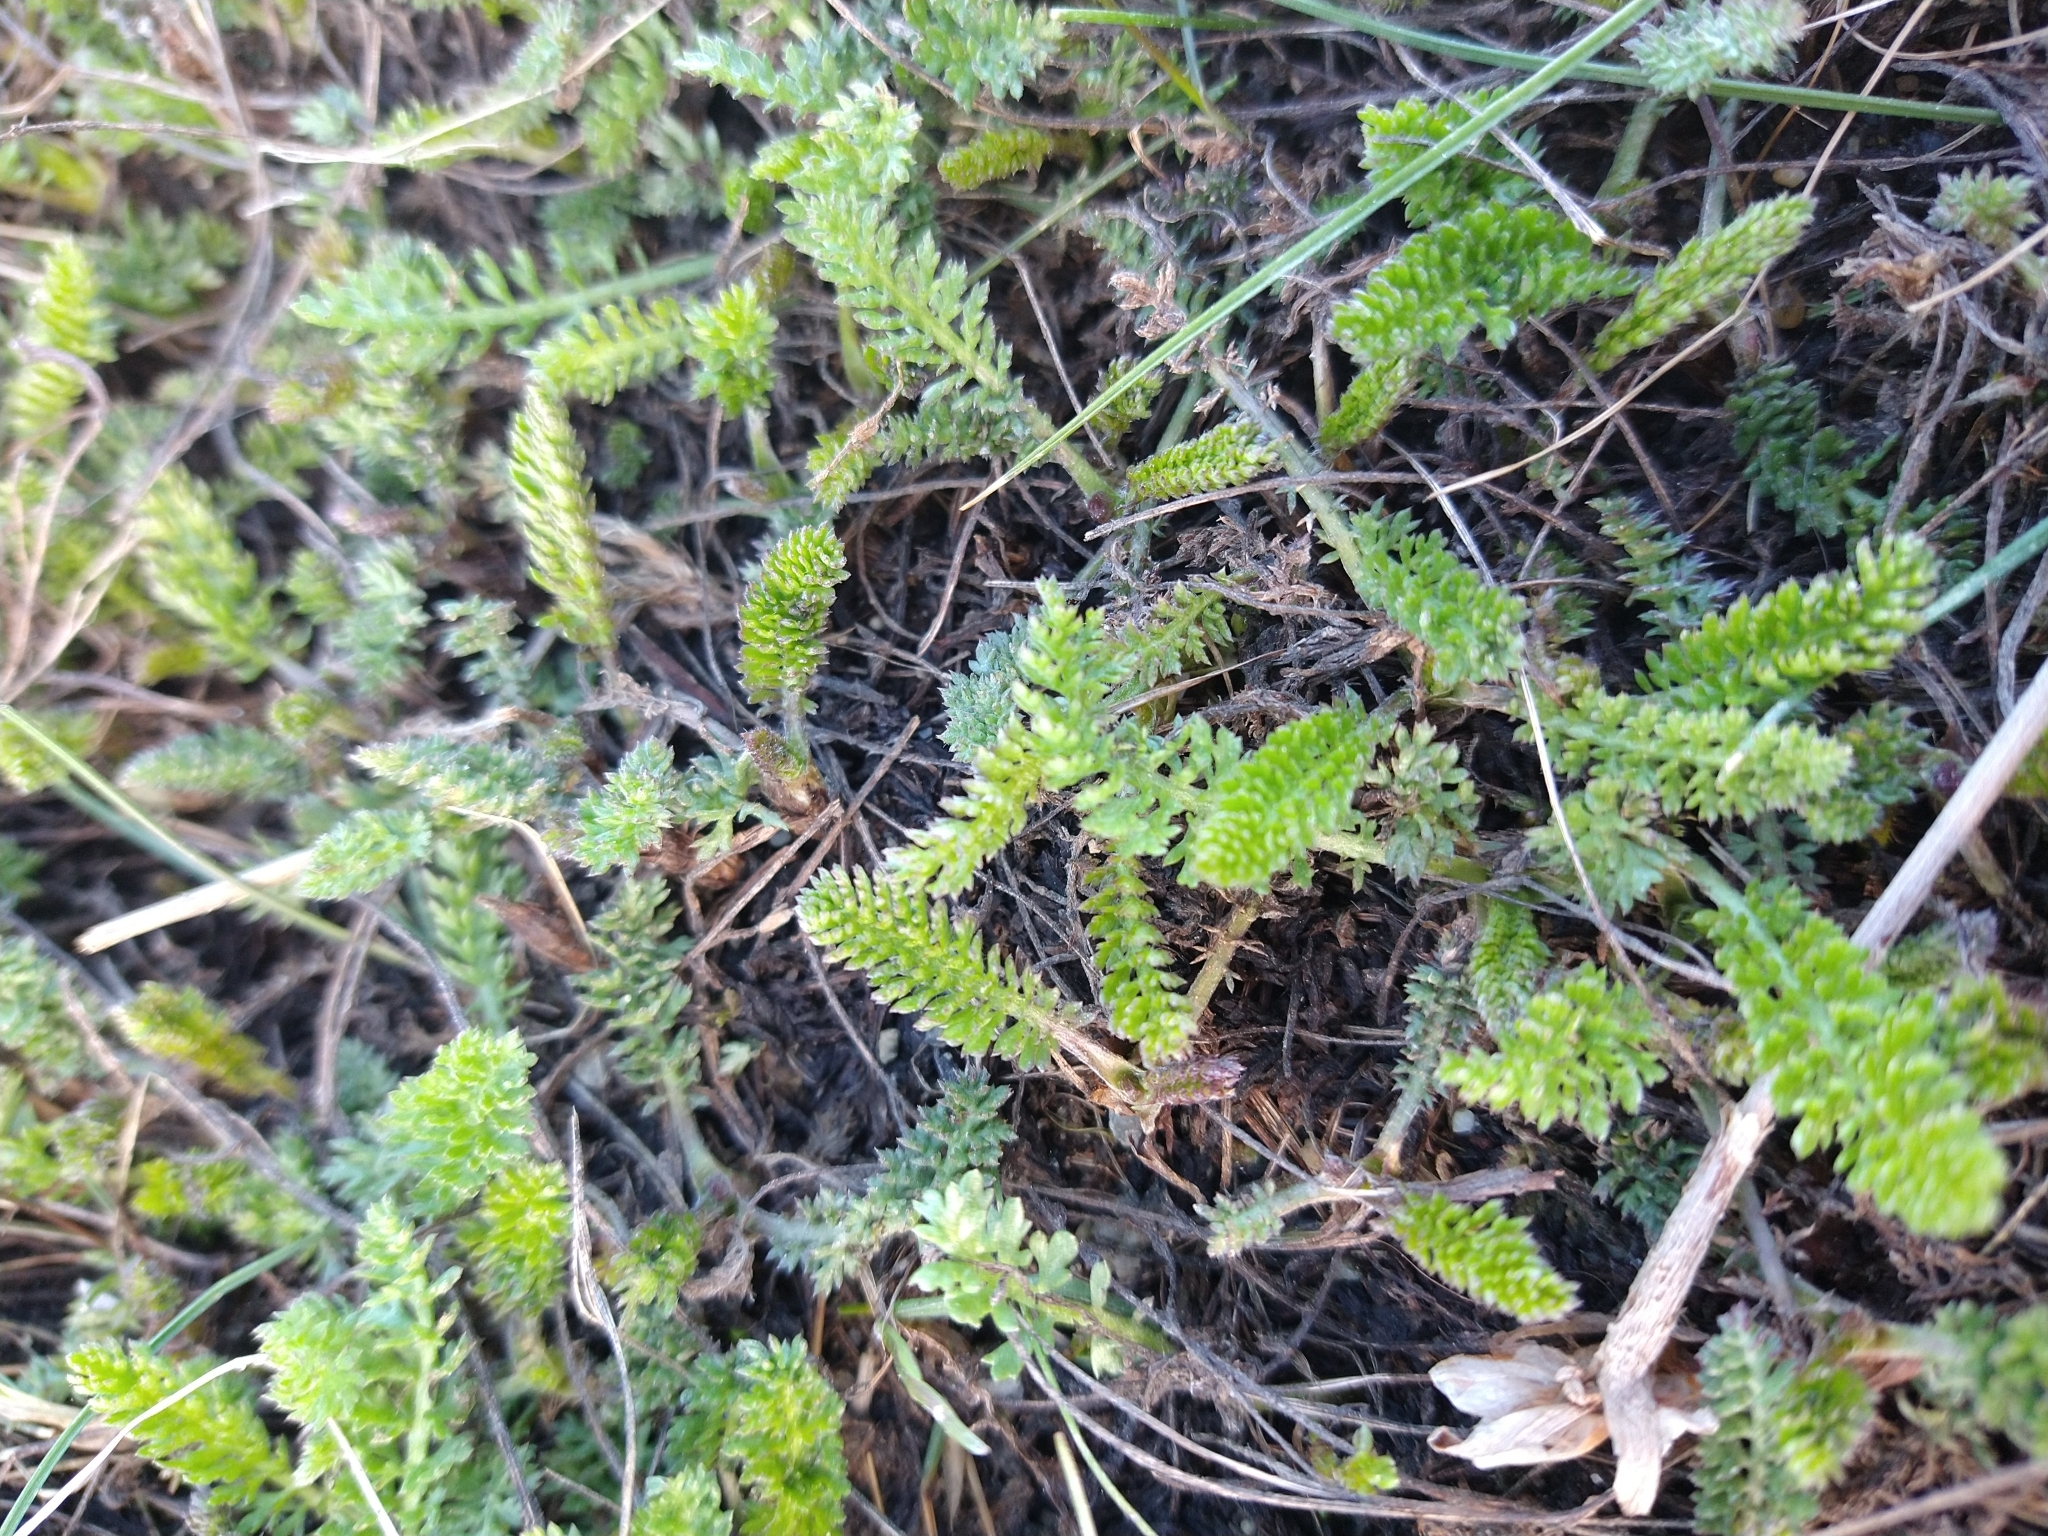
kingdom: Plantae
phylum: Tracheophyta
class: Magnoliopsida
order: Asterales
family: Asteraceae
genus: Achillea
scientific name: Achillea millefolium
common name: Yarrow
